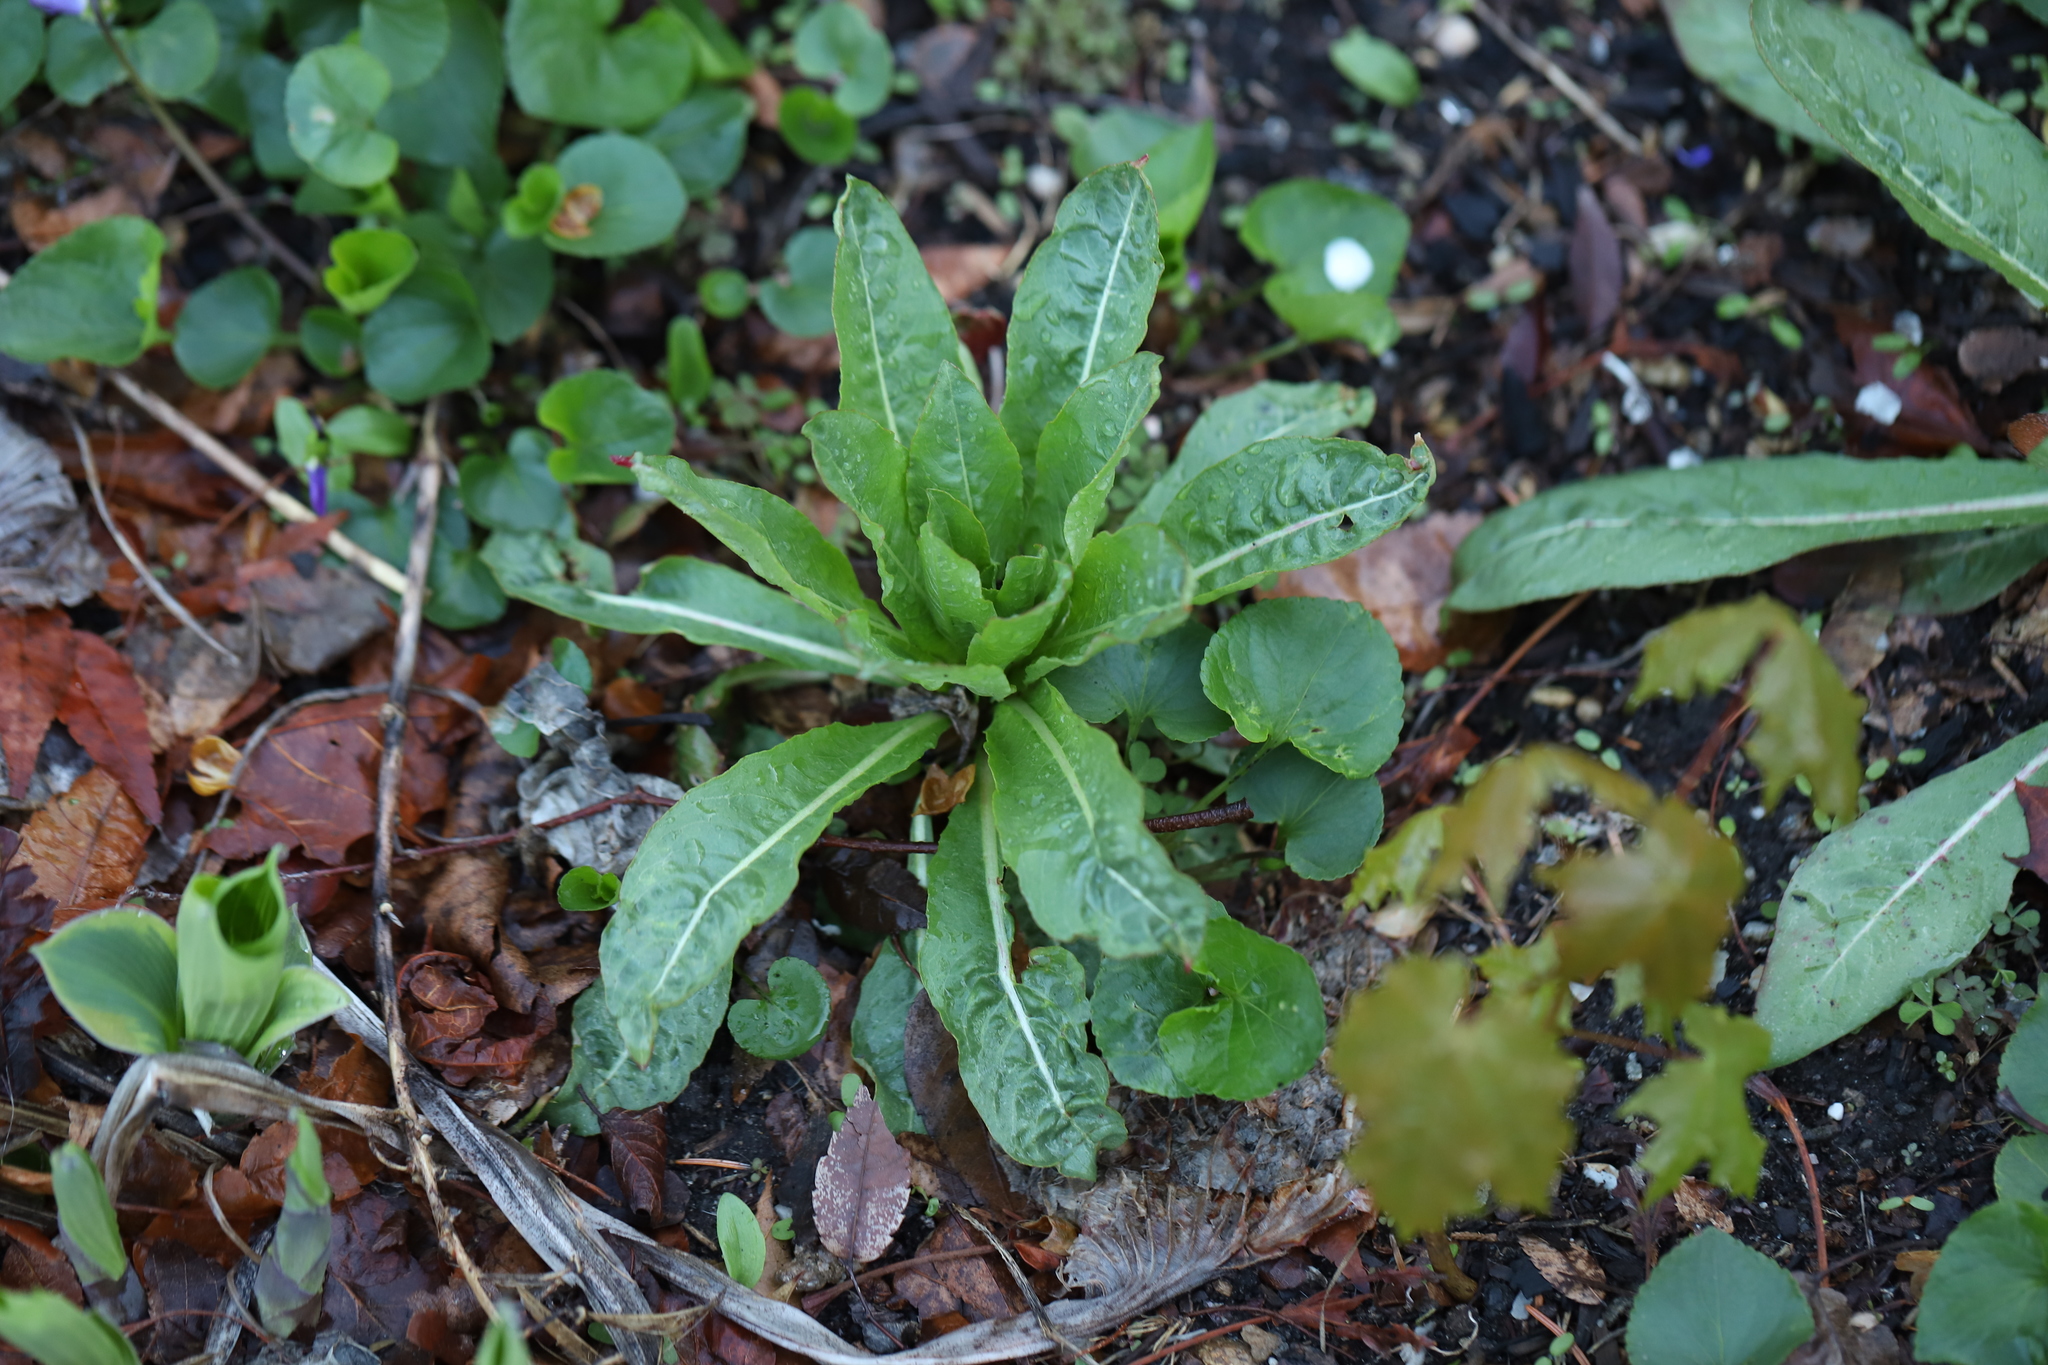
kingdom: Plantae
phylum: Tracheophyta
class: Magnoliopsida
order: Myrtales
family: Onagraceae
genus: Oenothera
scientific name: Oenothera biennis
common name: Common evening-primrose
